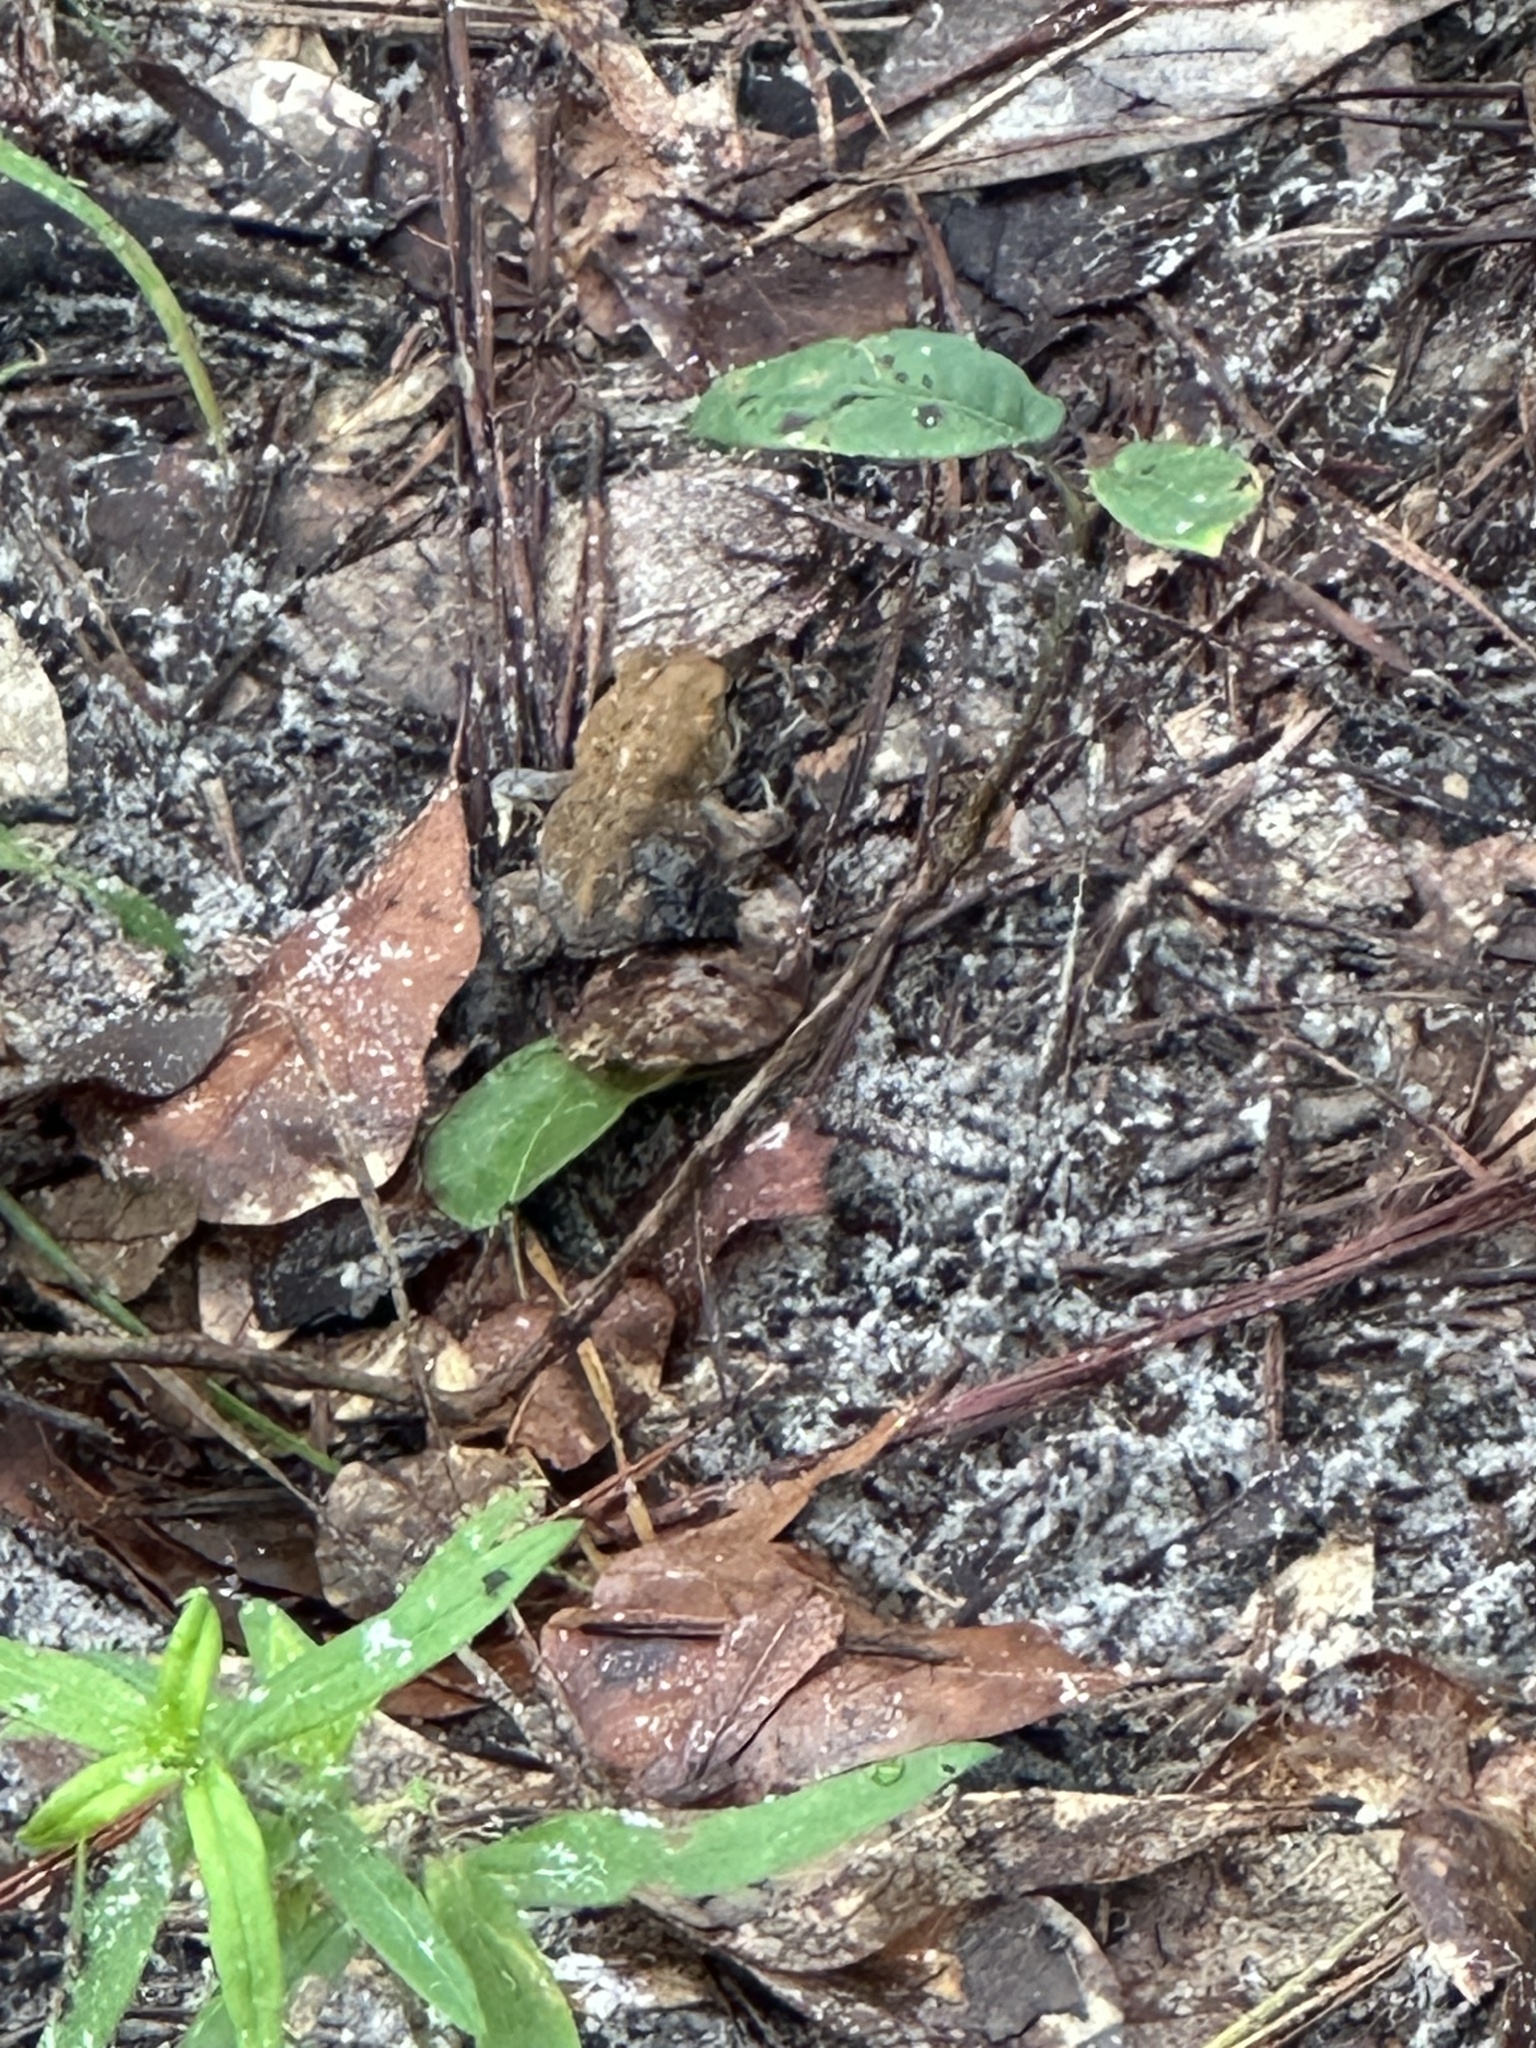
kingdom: Animalia
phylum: Chordata
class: Amphibia
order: Anura
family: Bufonidae
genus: Anaxyrus
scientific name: Anaxyrus terrestris
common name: Southern toad
